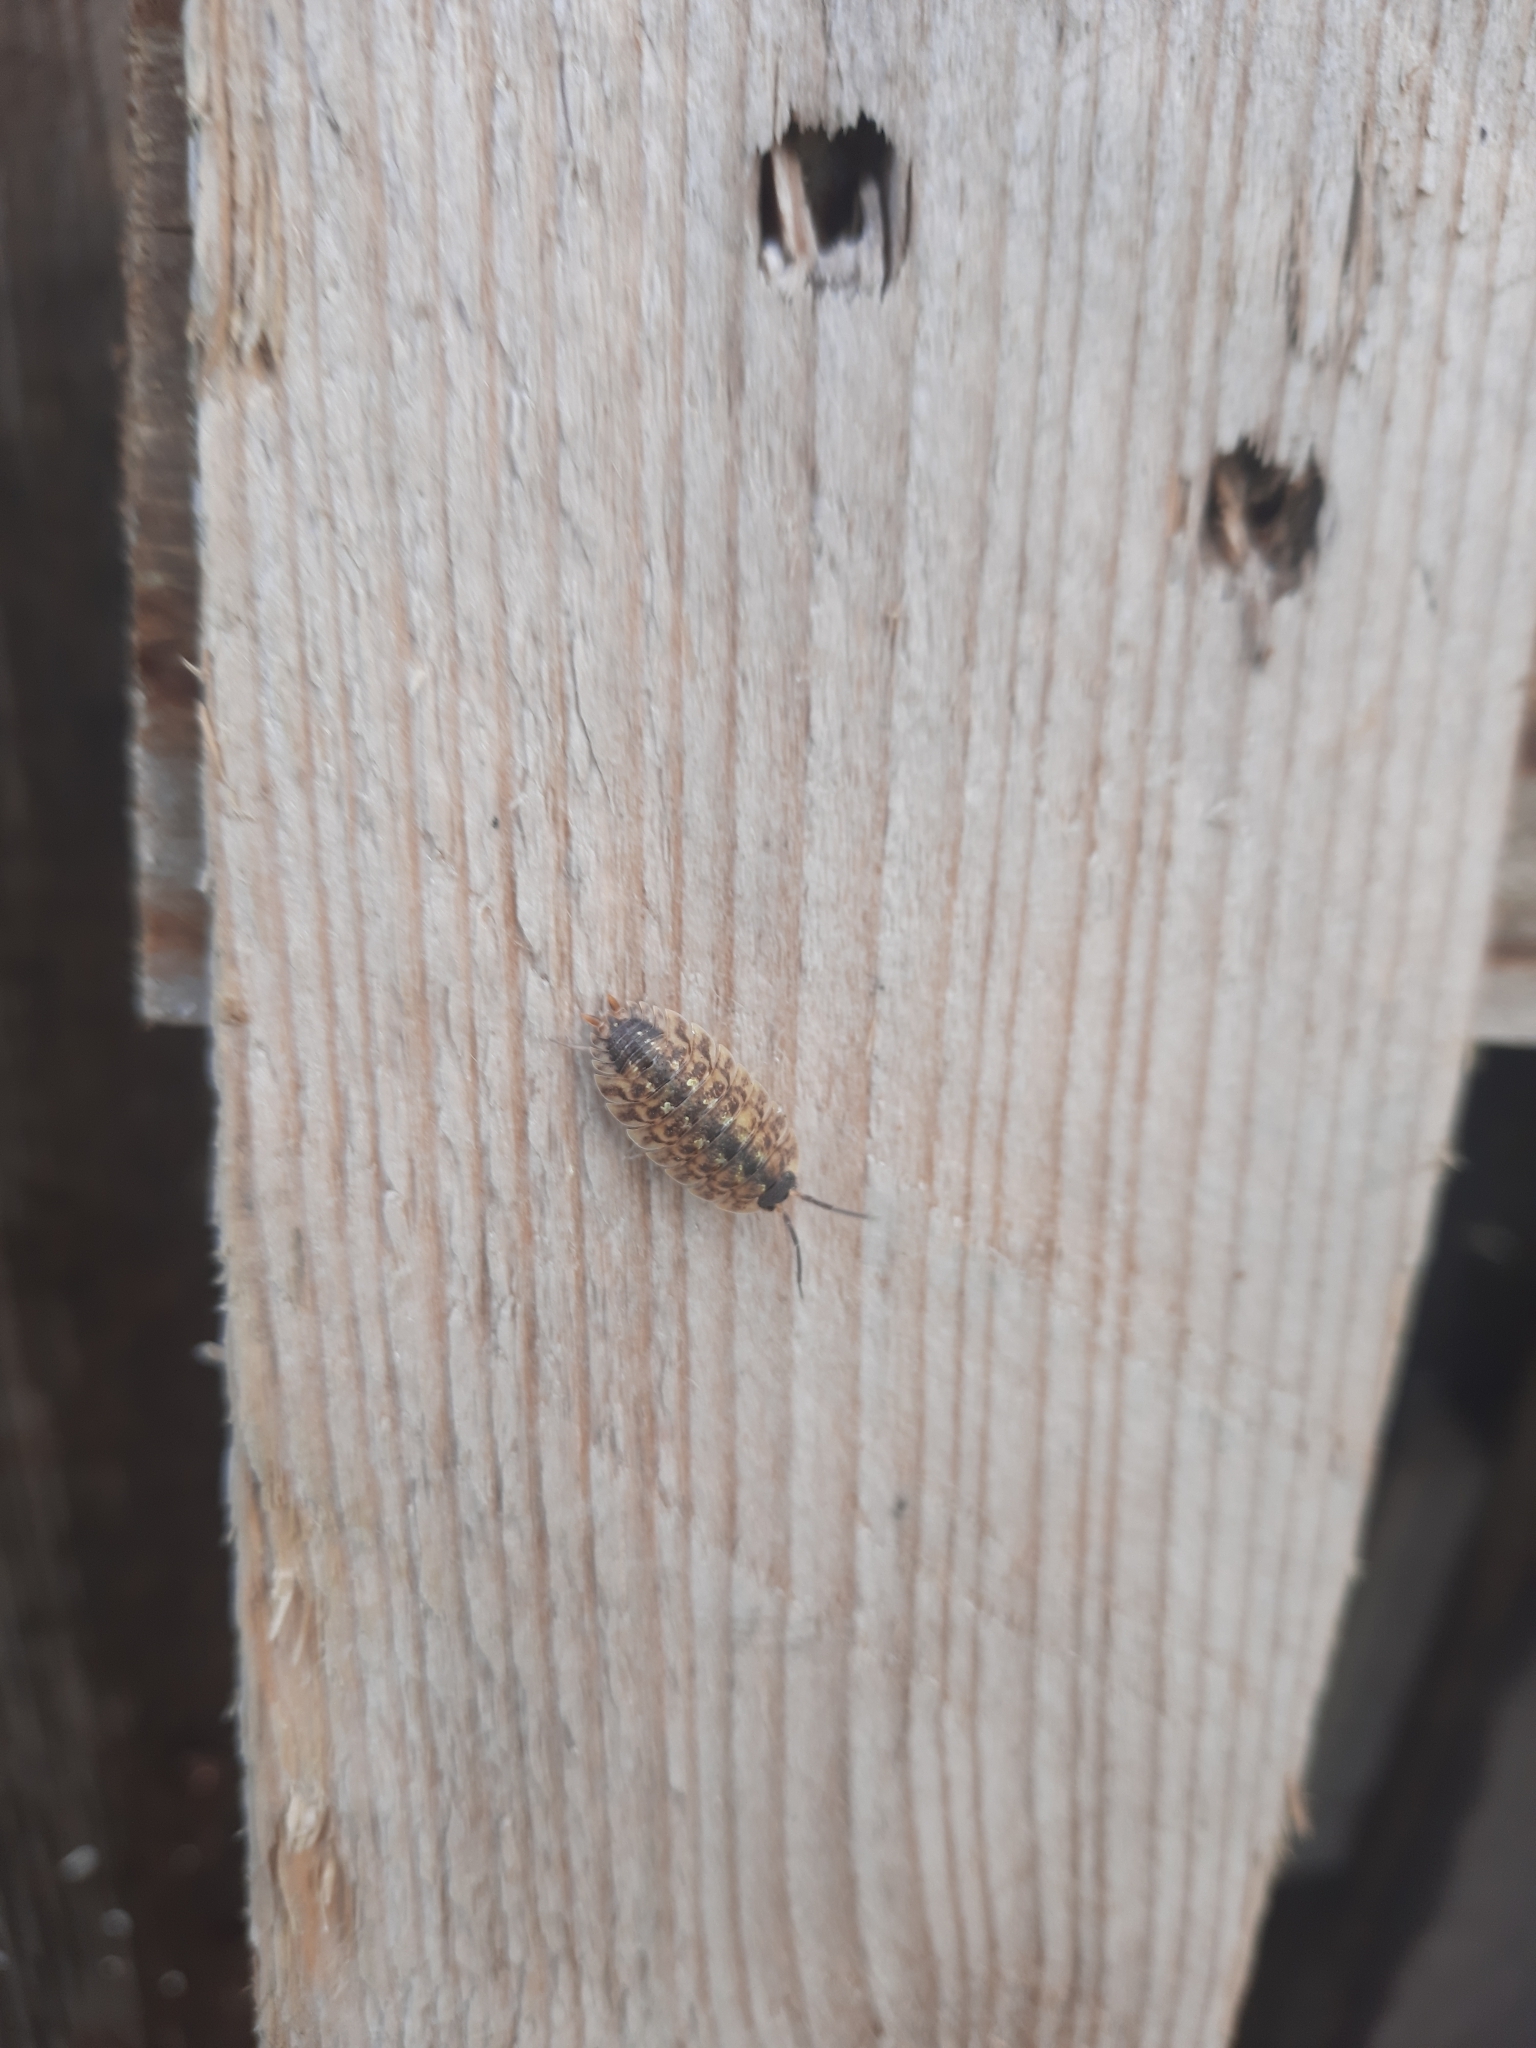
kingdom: Animalia
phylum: Arthropoda
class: Malacostraca
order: Isopoda
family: Porcellionidae
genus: Porcellio
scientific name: Porcellio spinicornis
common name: Painted woodlouse
